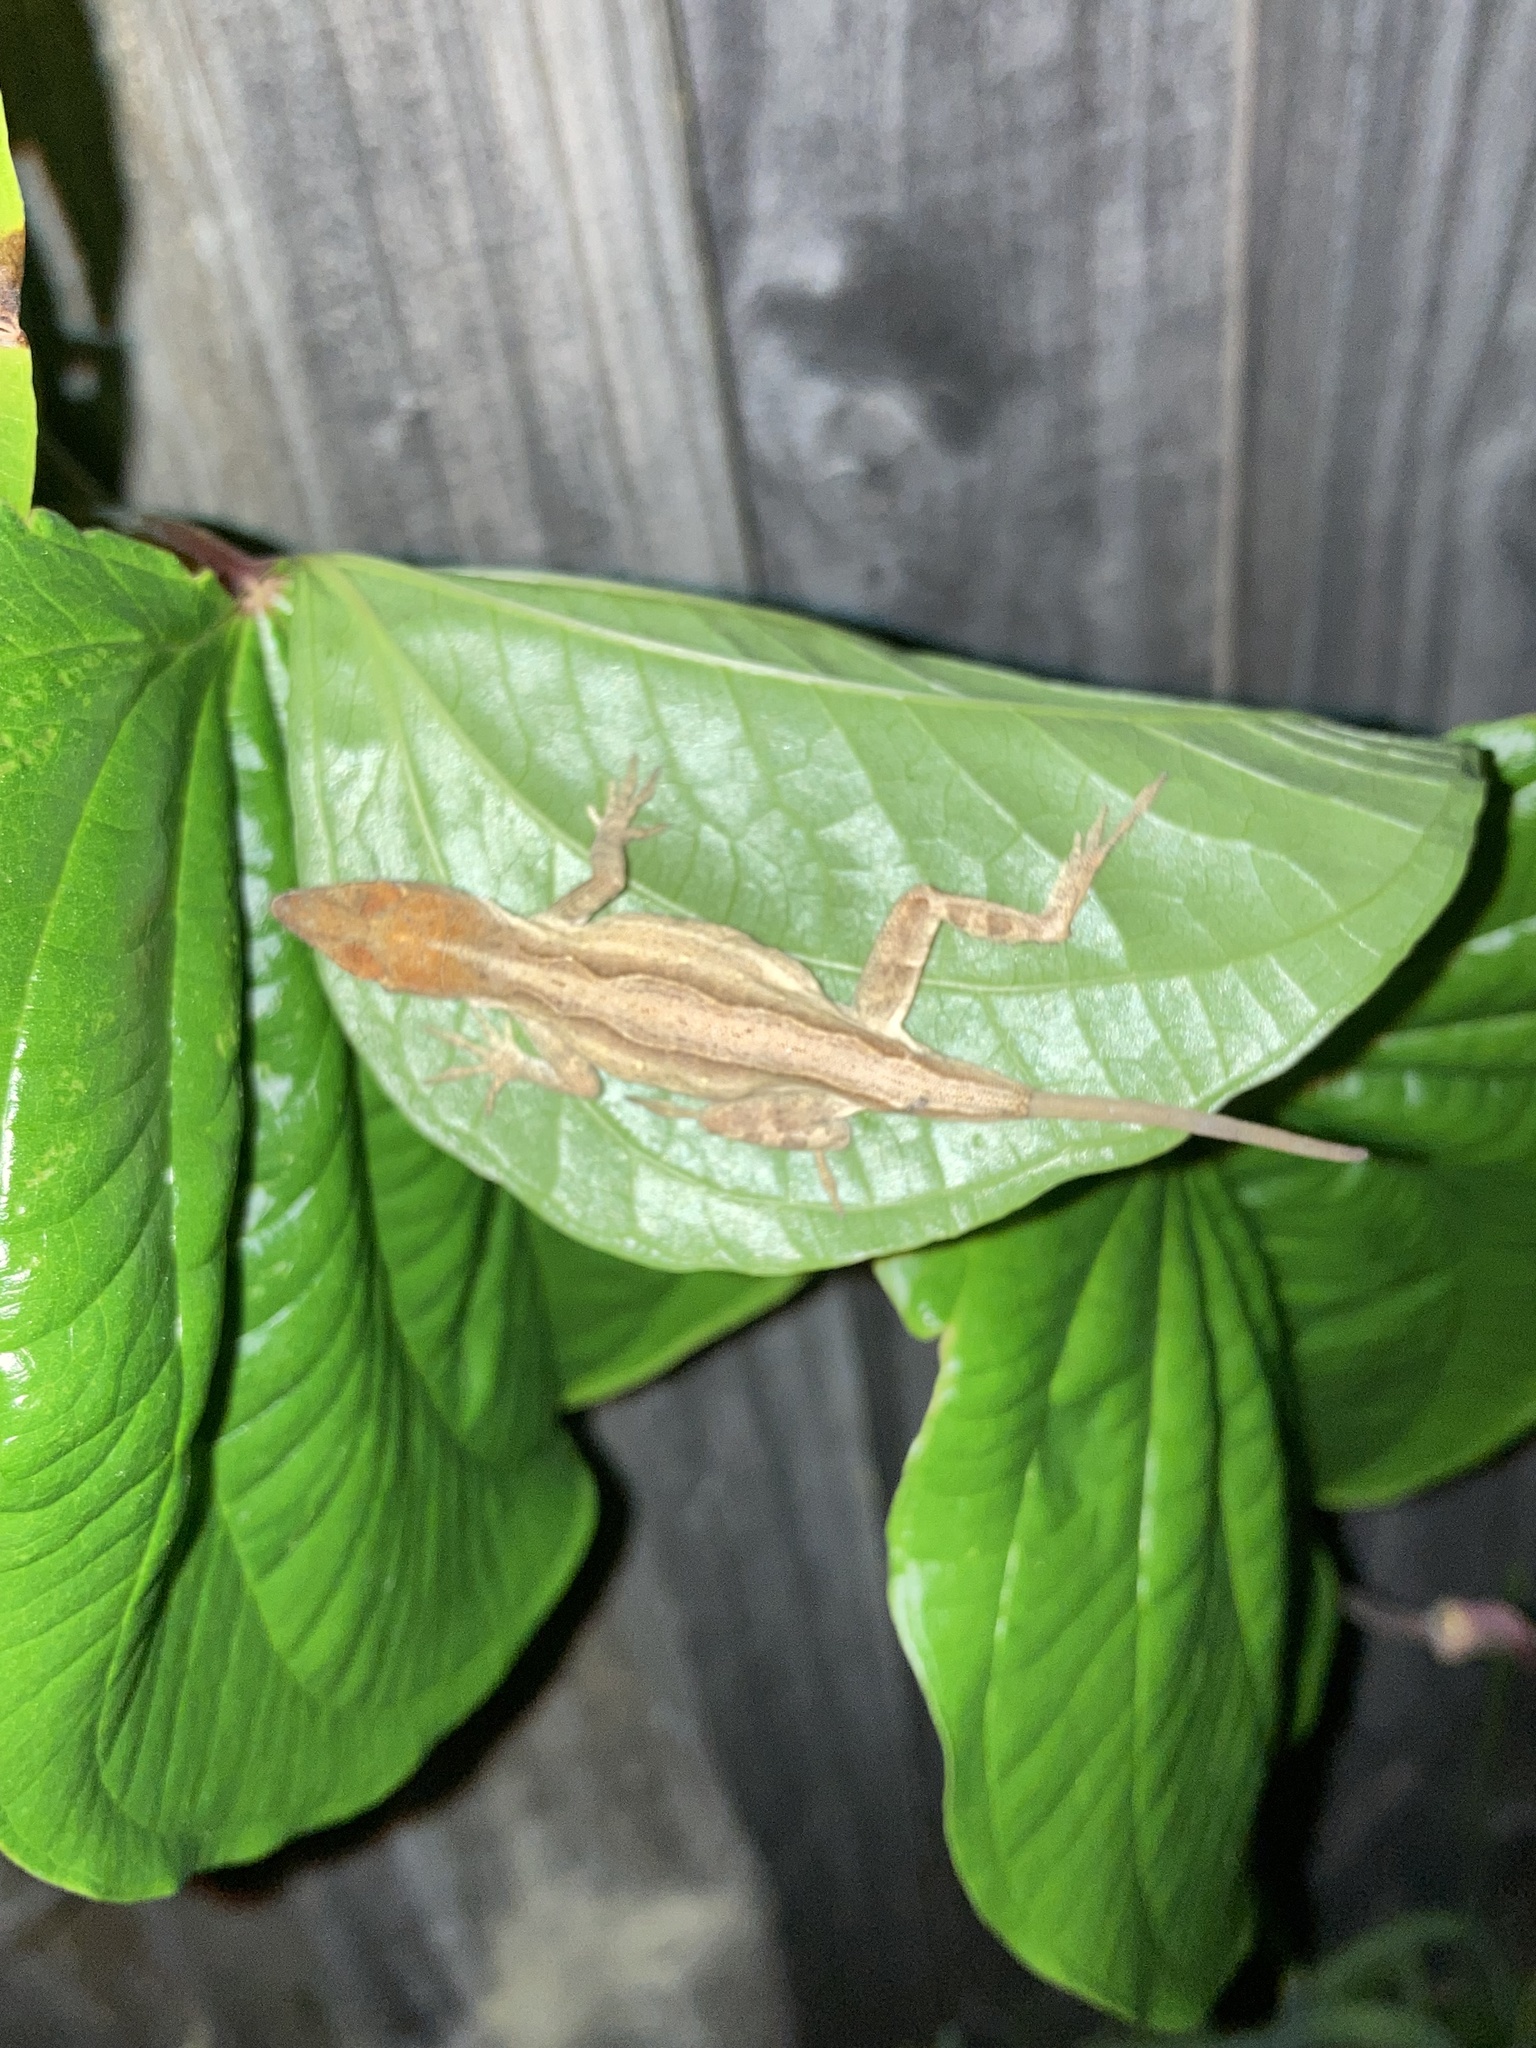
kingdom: Animalia
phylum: Chordata
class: Squamata
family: Dactyloidae
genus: Anolis
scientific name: Anolis sagrei
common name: Brown anole
